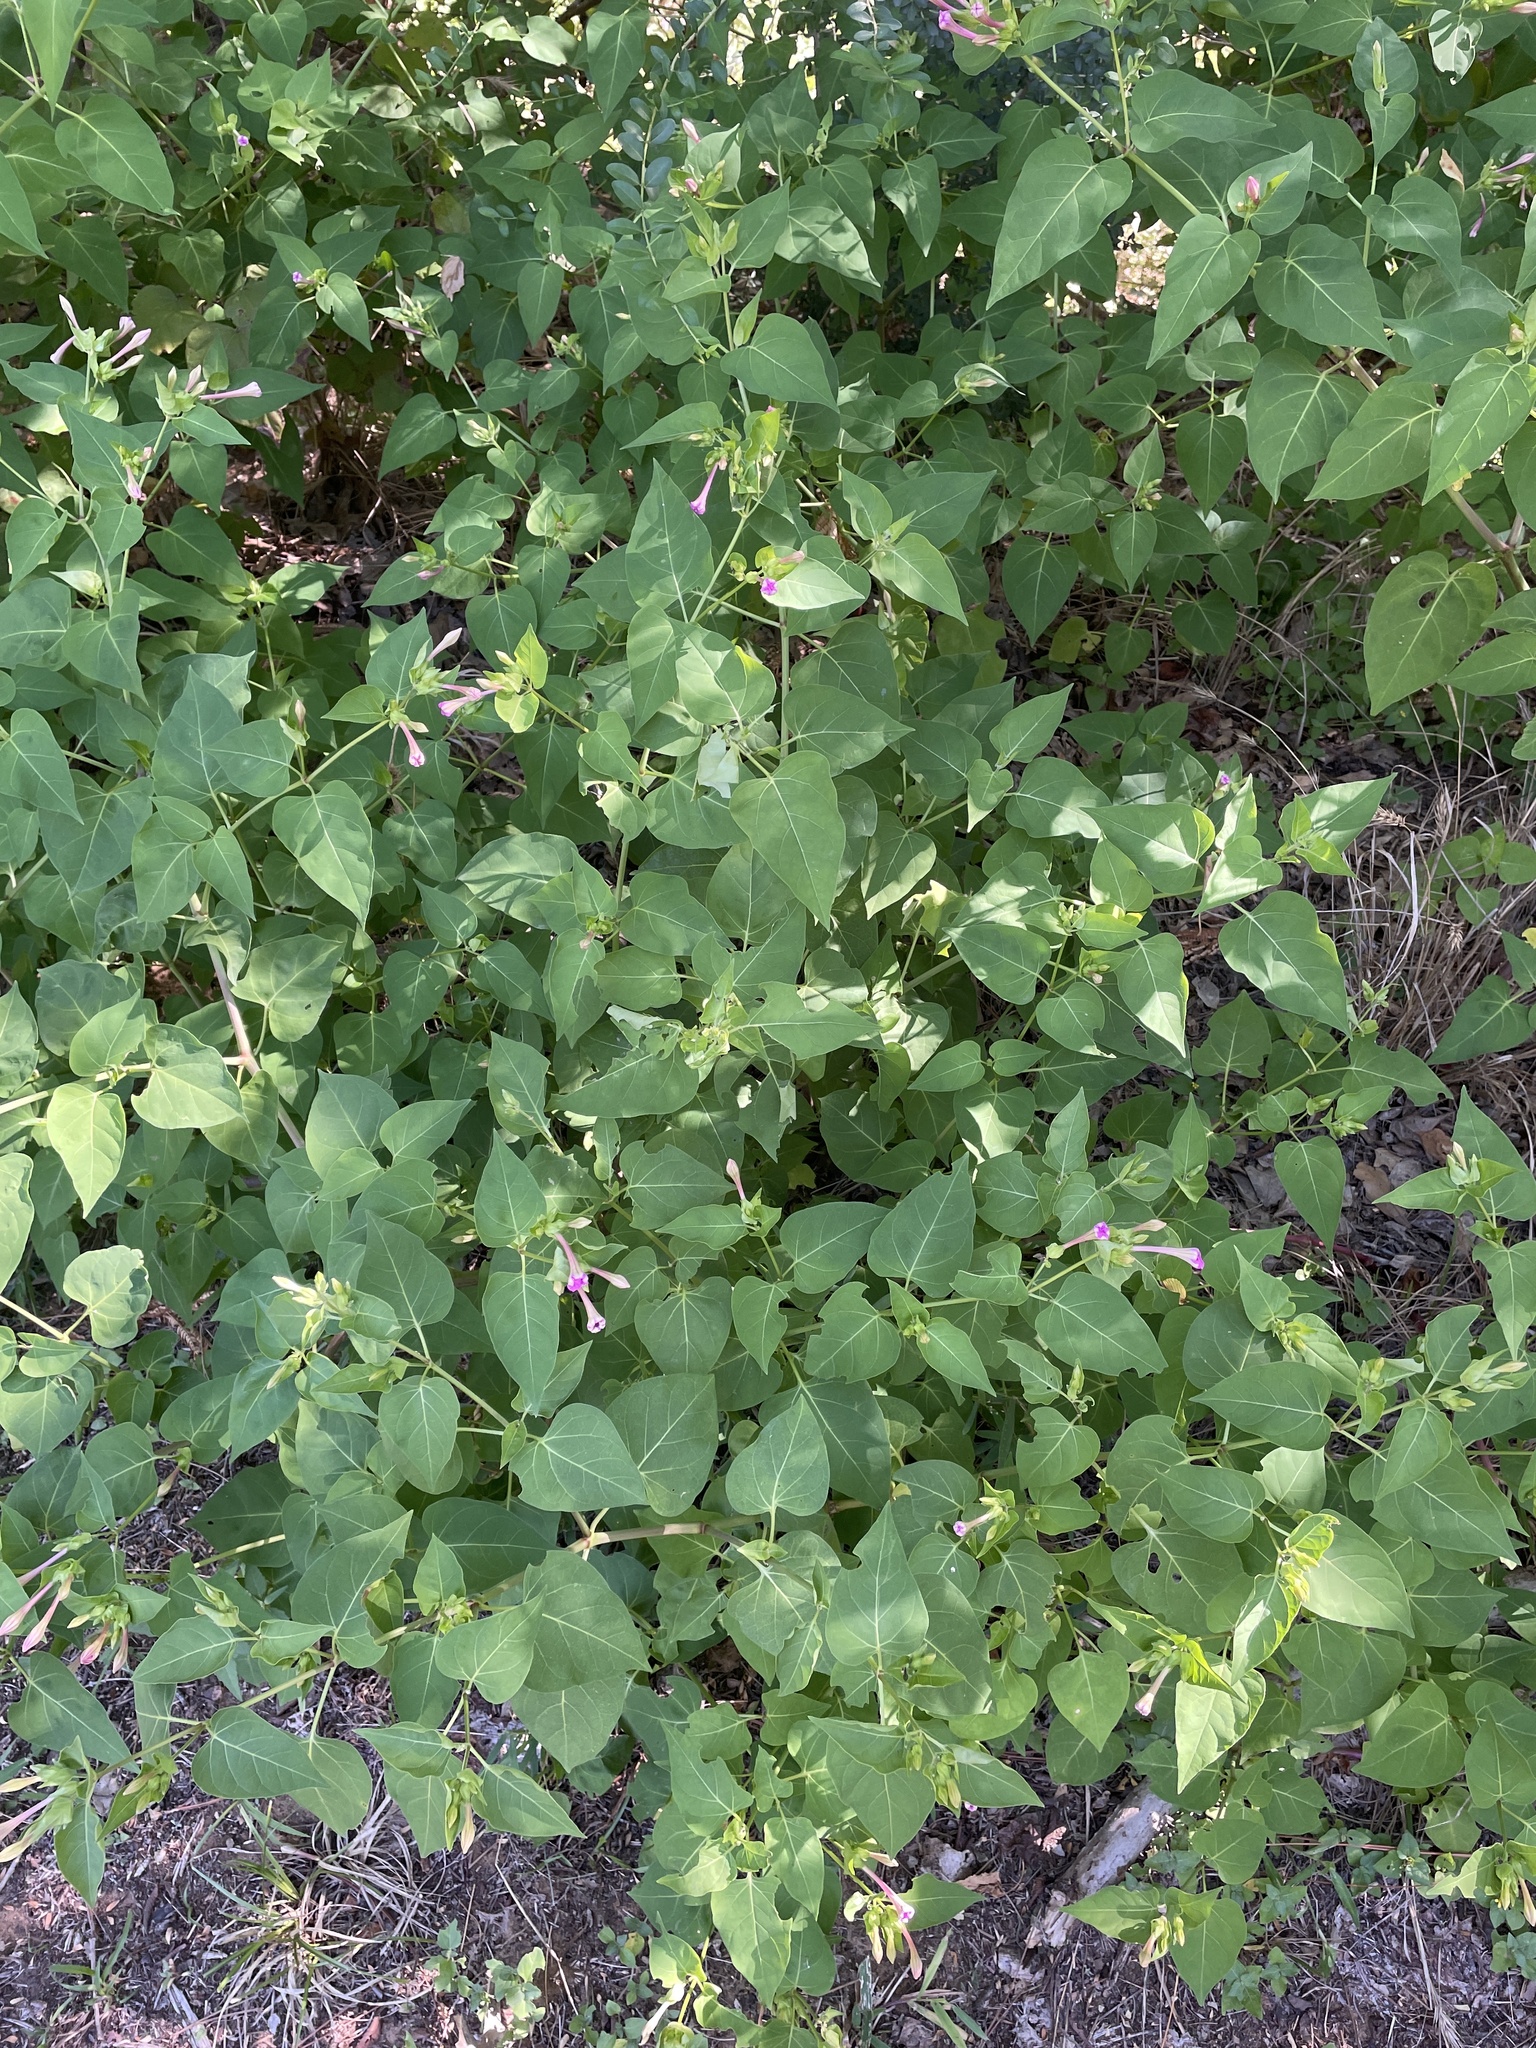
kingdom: Plantae
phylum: Tracheophyta
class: Magnoliopsida
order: Caryophyllales
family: Nyctaginaceae
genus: Mirabilis
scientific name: Mirabilis jalapa
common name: Marvel-of-peru
